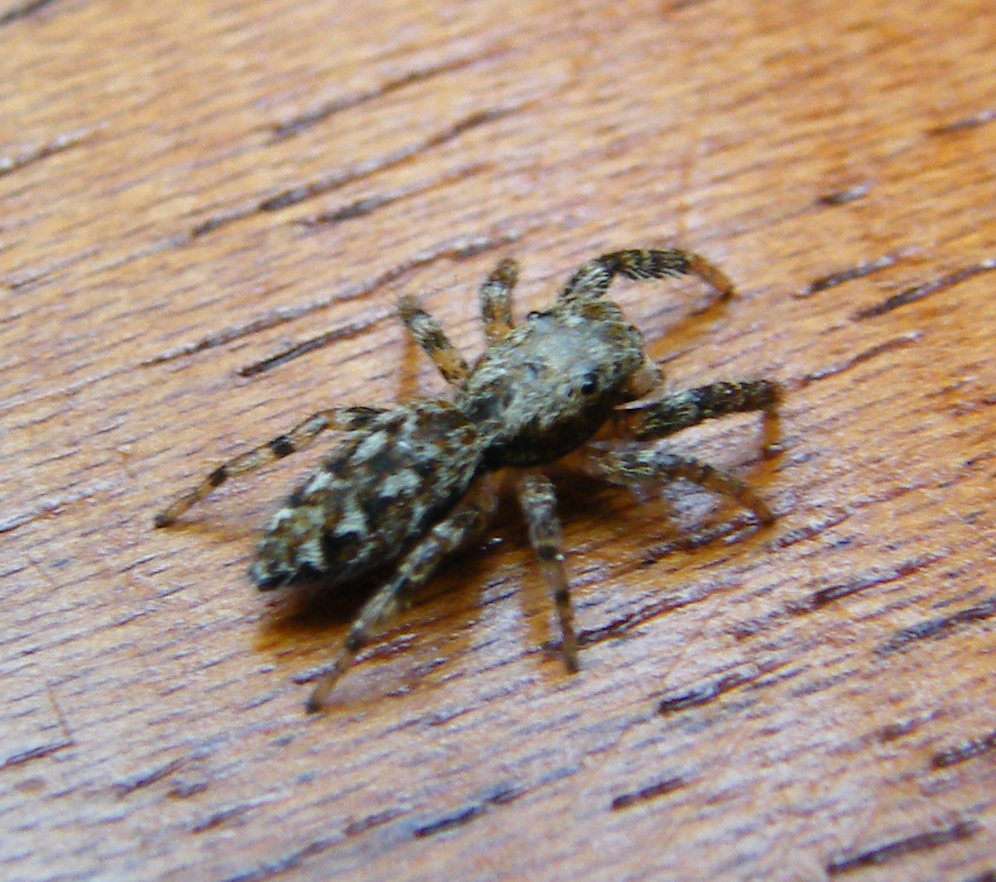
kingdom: Animalia
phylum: Arthropoda
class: Arachnida
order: Araneae
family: Salticidae
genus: Marpissa
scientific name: Marpissa muscosa
